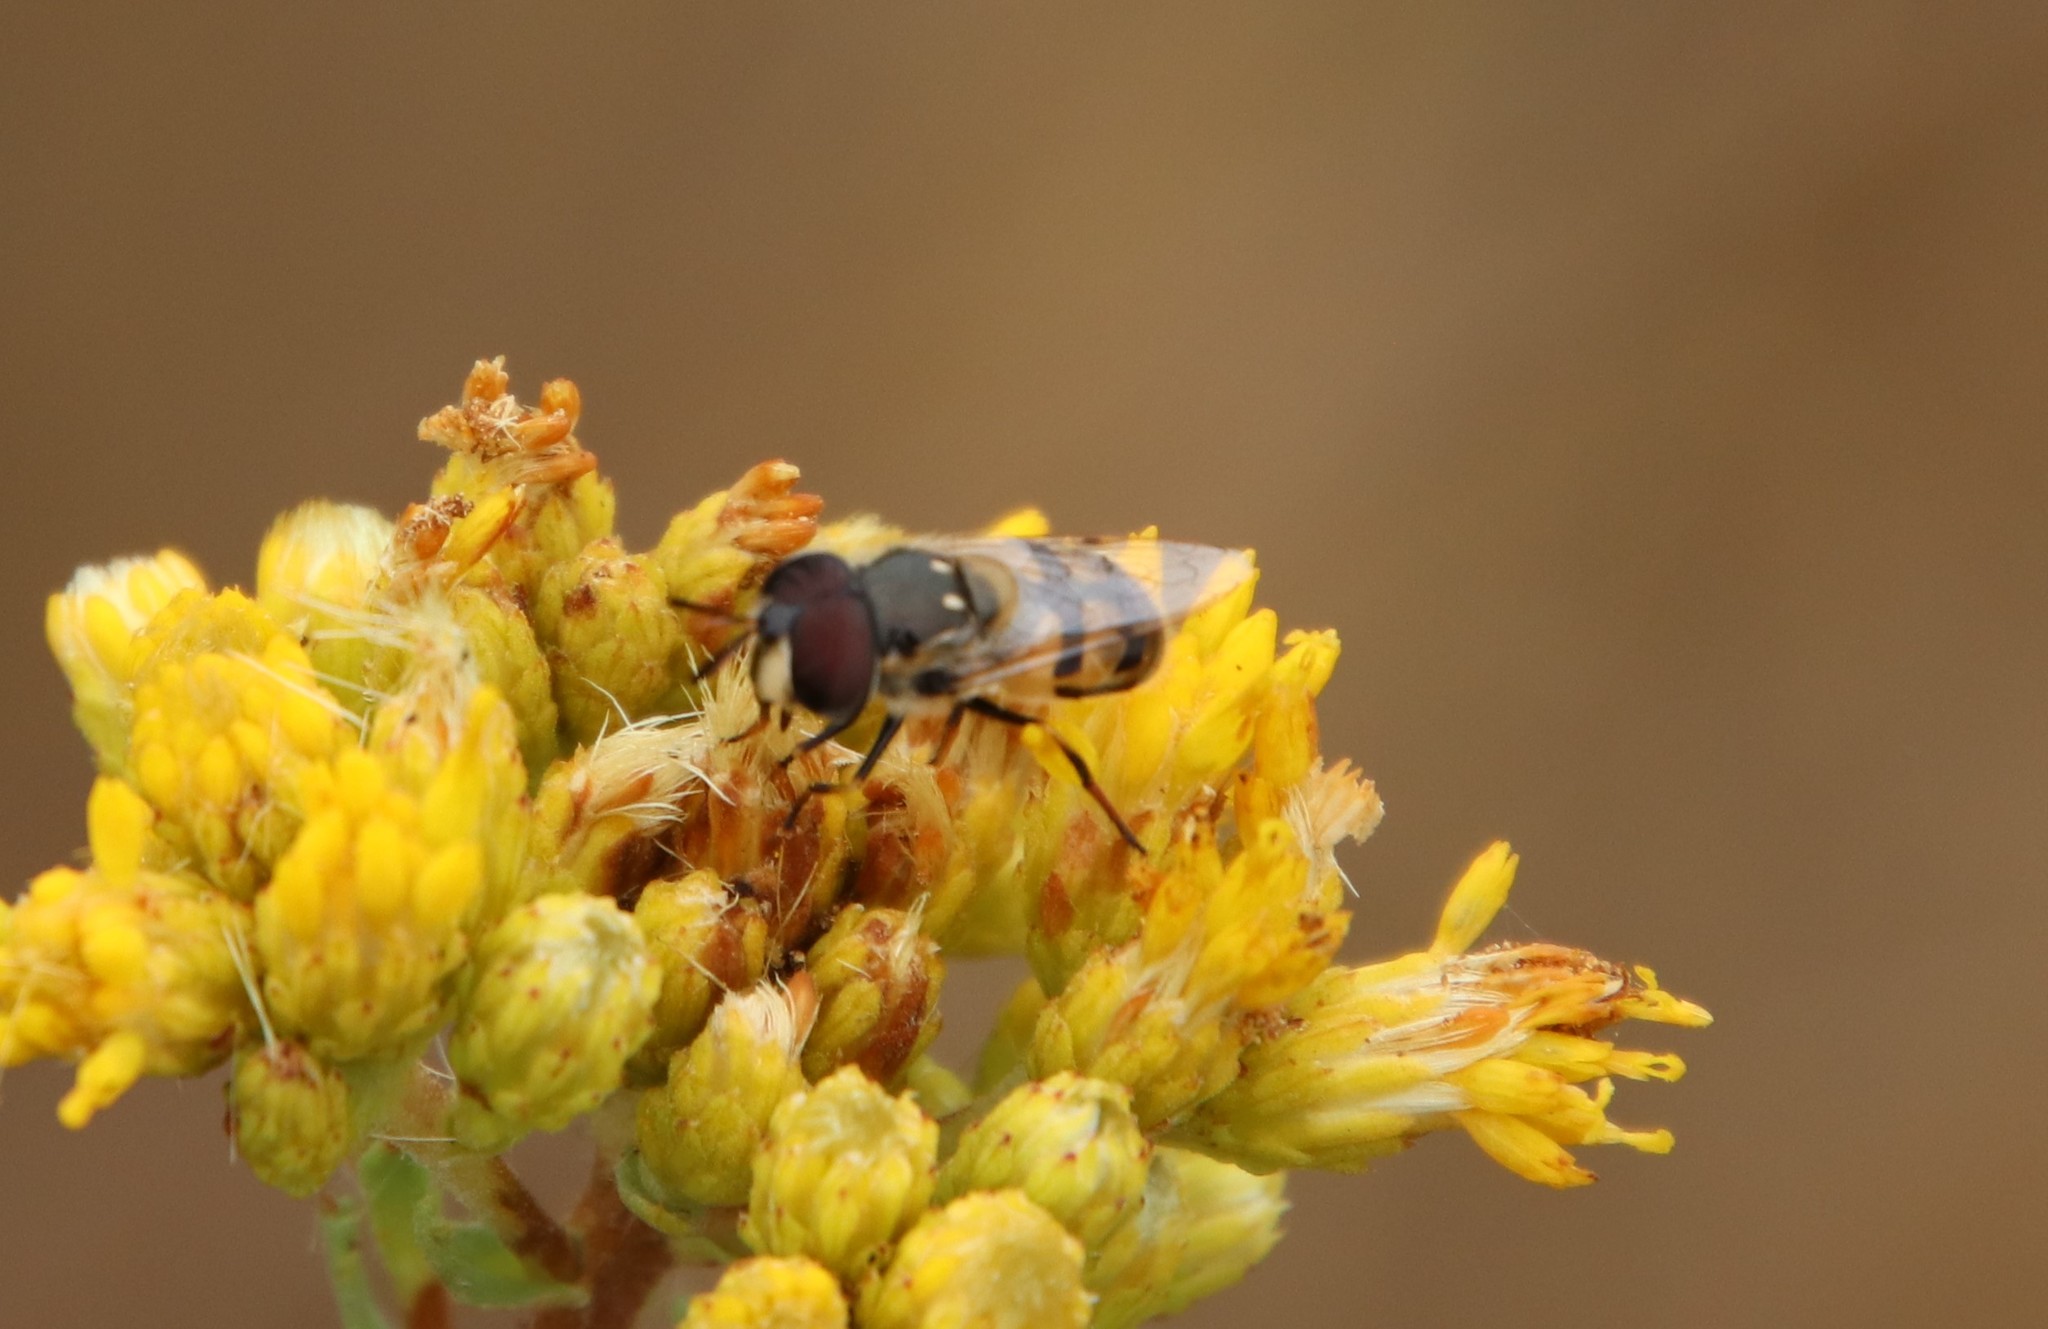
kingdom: Animalia
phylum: Arthropoda
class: Insecta
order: Diptera
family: Syrphidae
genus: Copestylum
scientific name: Copestylum marginatum
